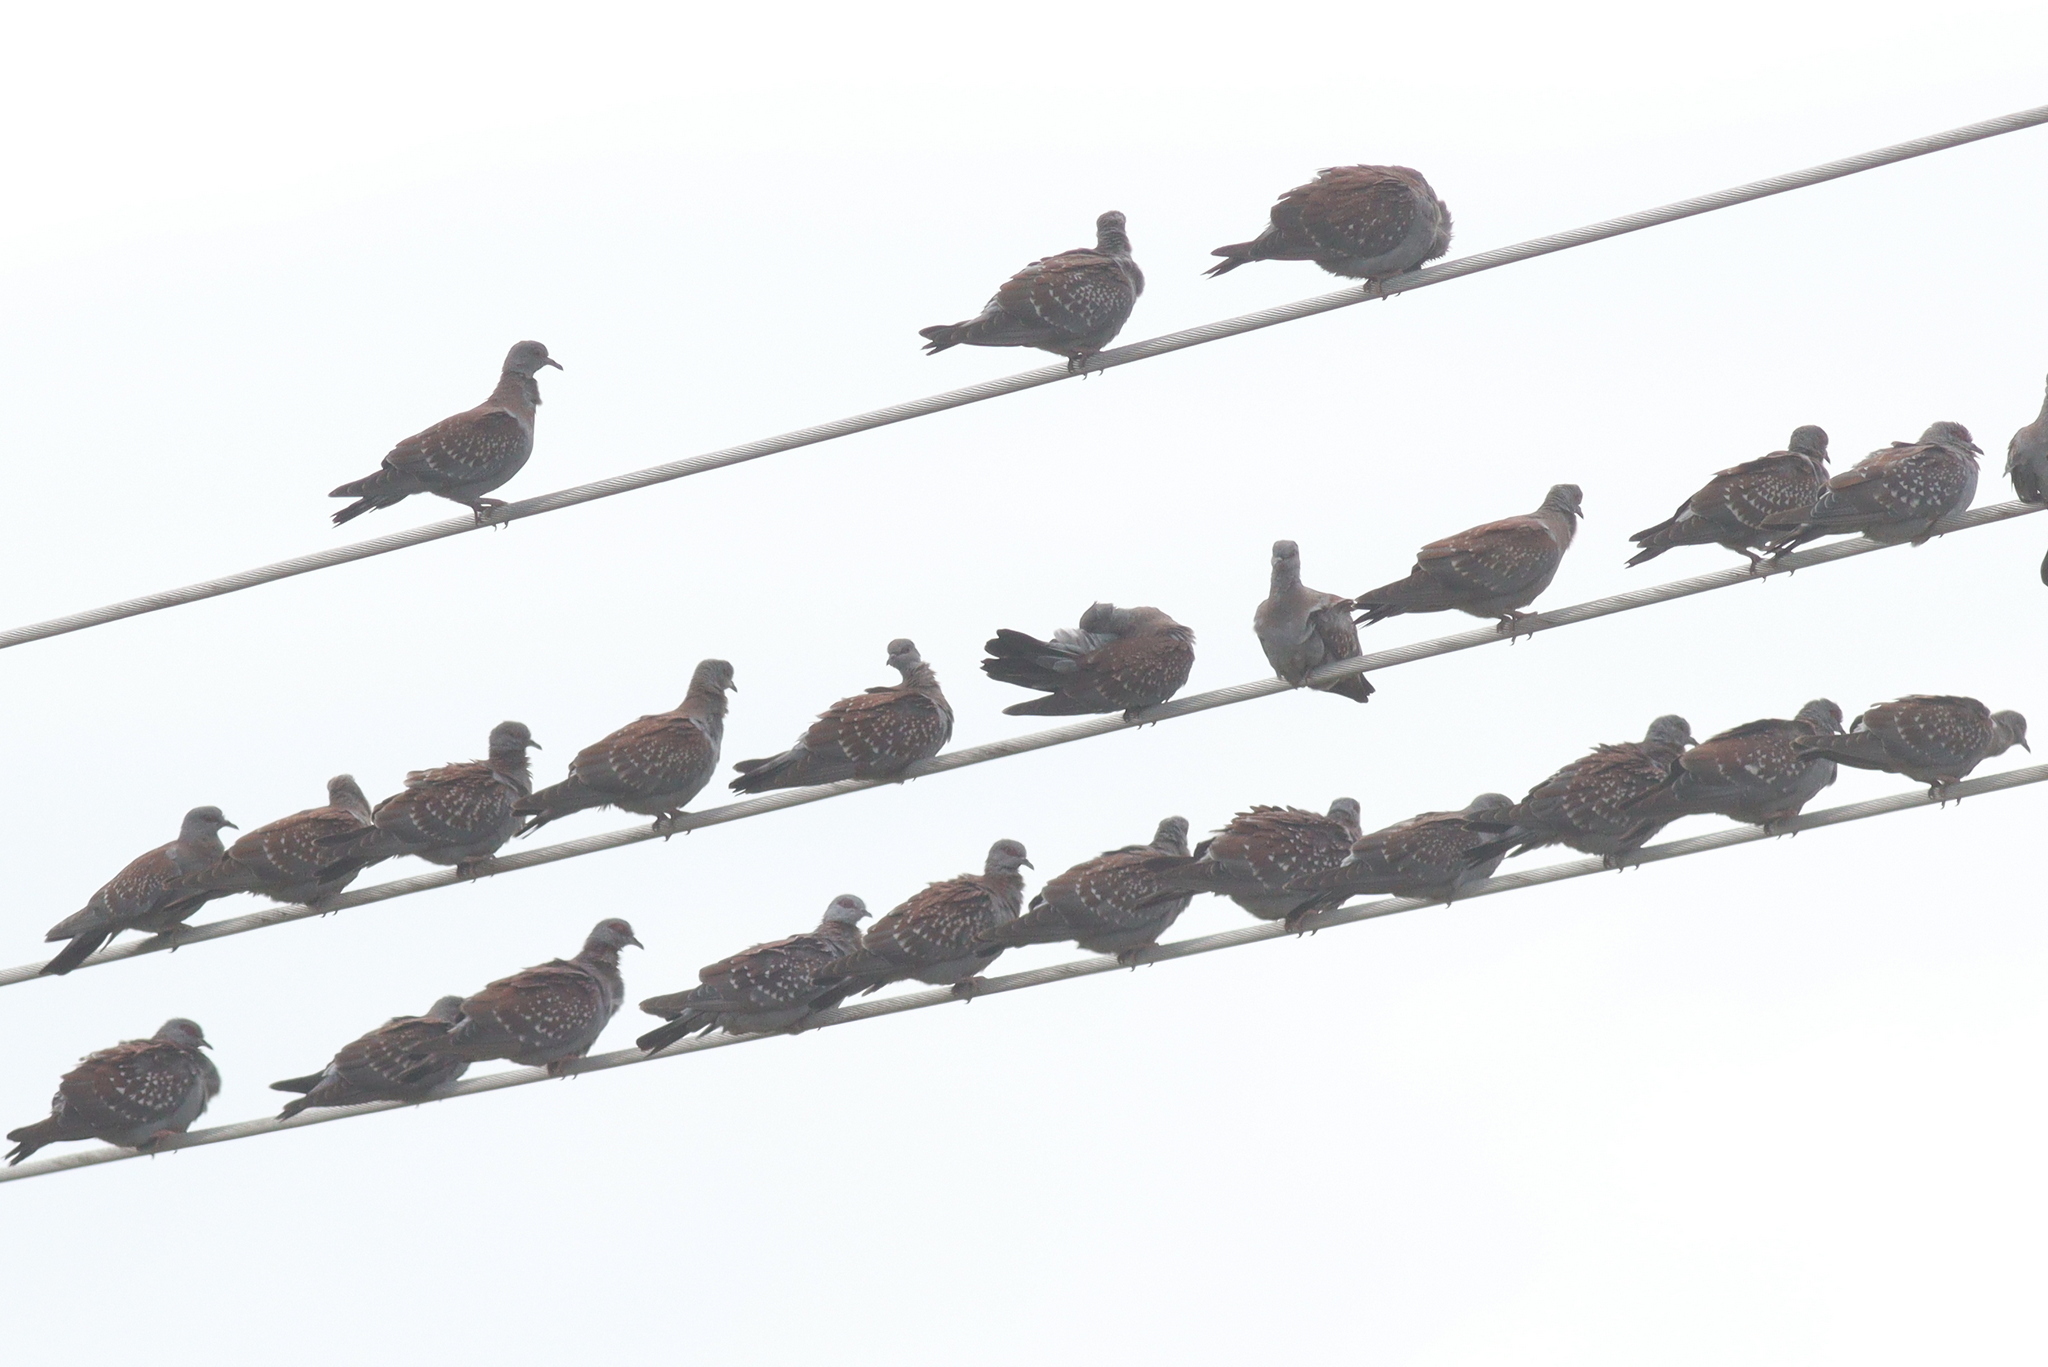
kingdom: Animalia
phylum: Chordata
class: Aves
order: Columbiformes
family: Columbidae
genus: Columba
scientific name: Columba guinea
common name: Speckled pigeon
